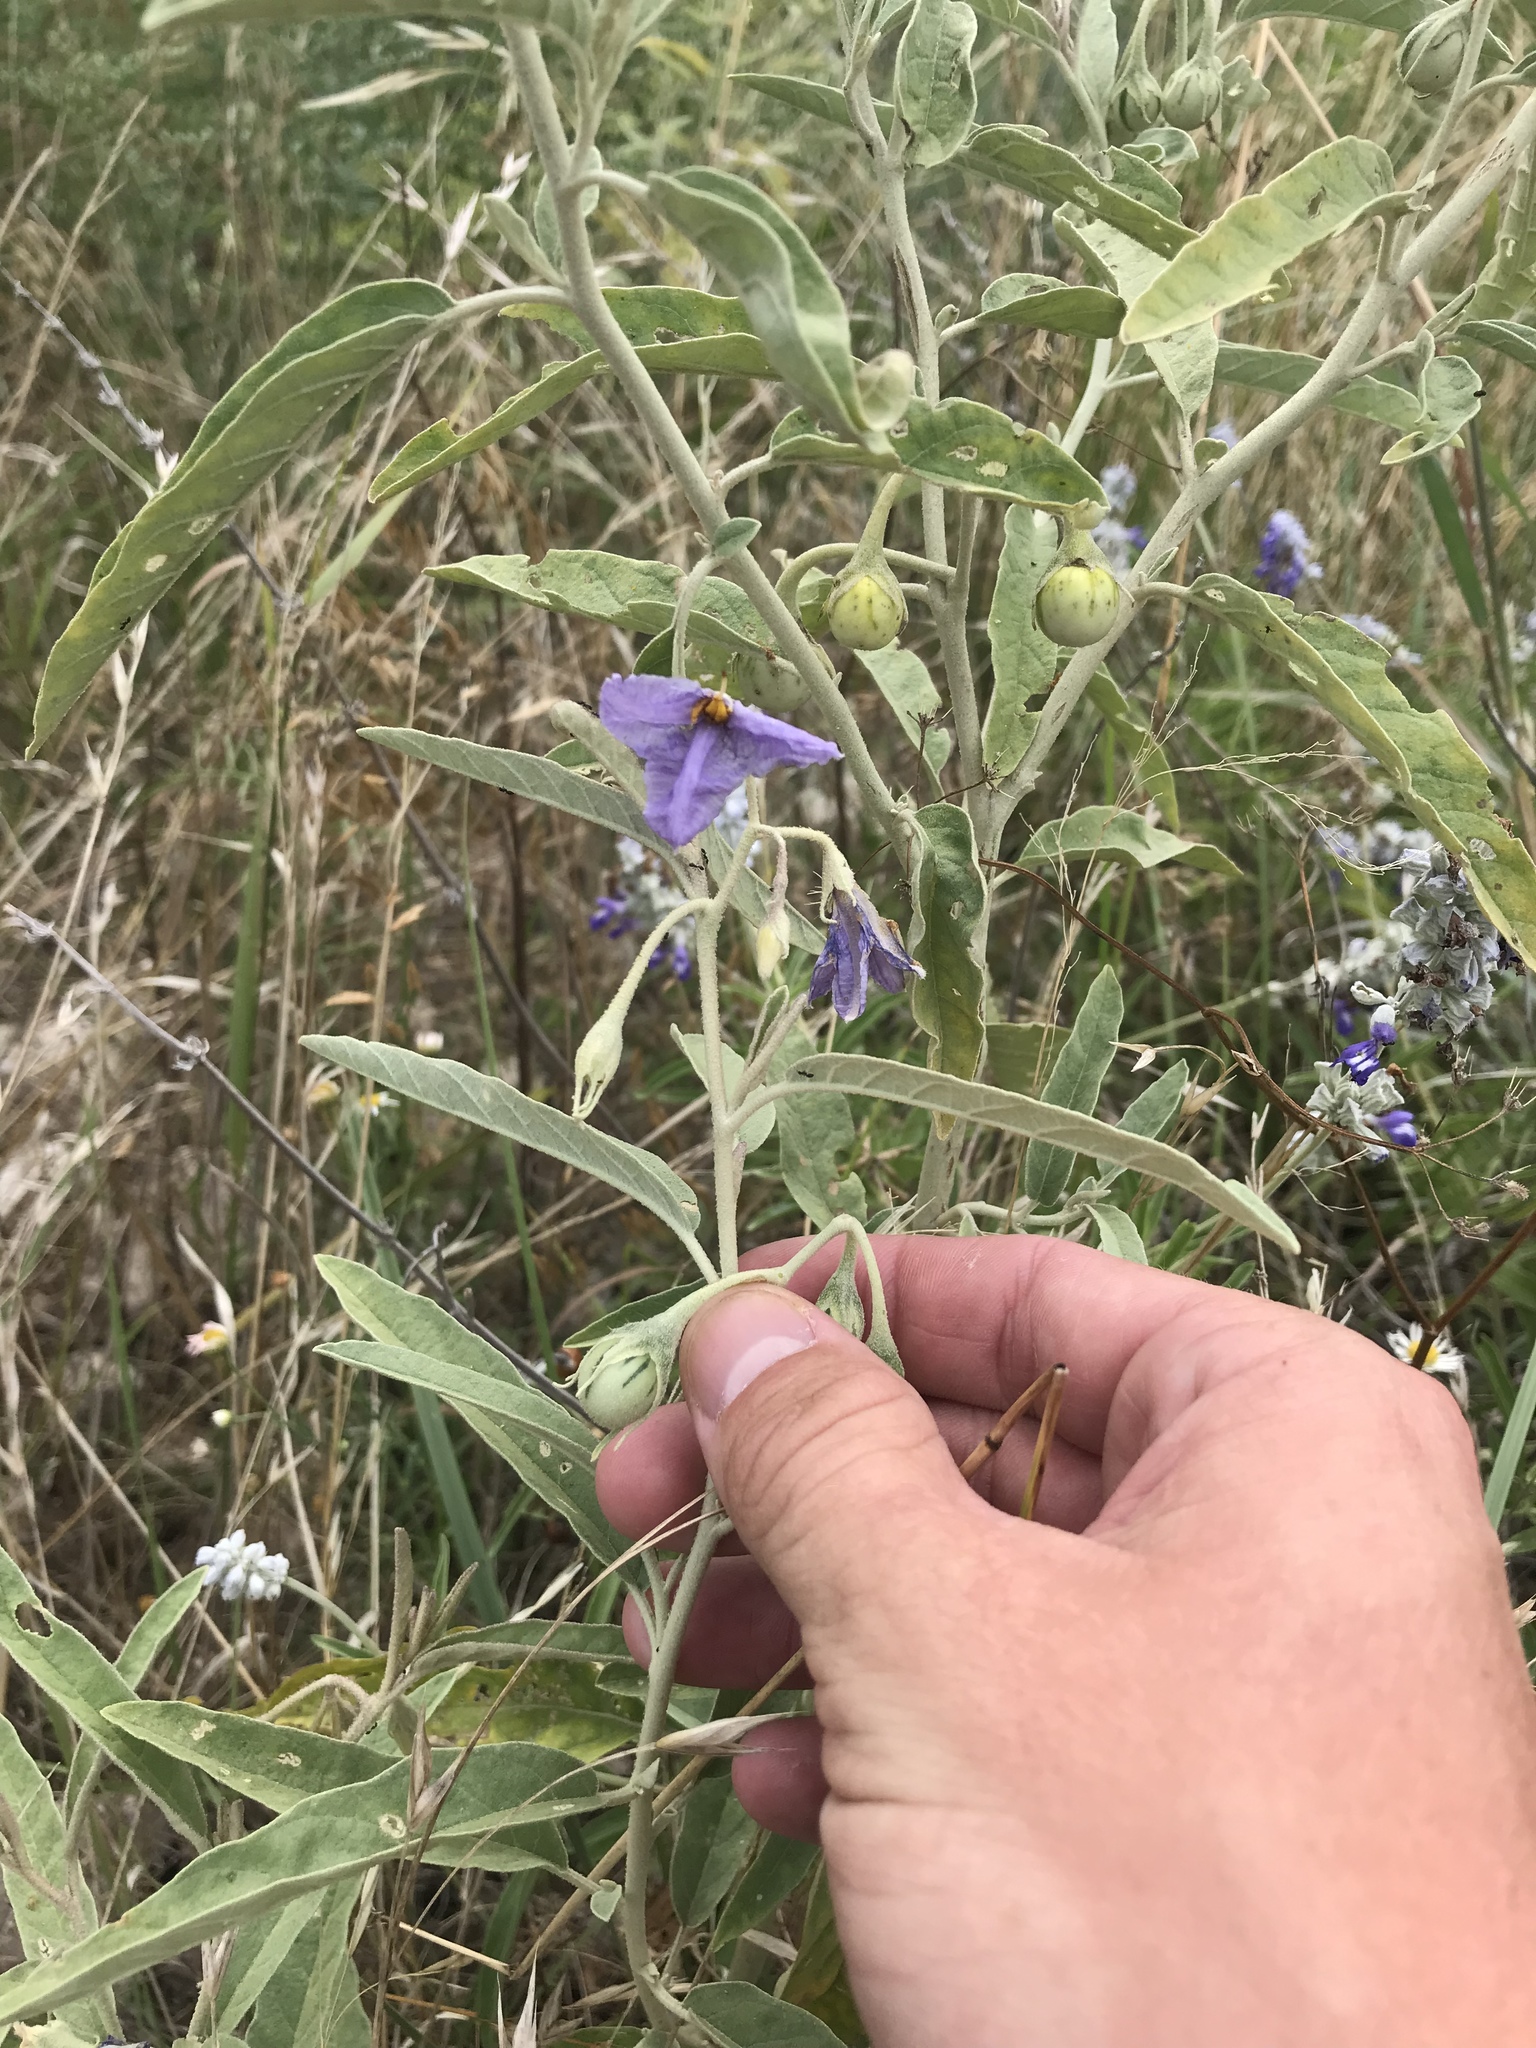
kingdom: Plantae
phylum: Tracheophyta
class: Magnoliopsida
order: Solanales
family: Solanaceae
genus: Solanum
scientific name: Solanum elaeagnifolium
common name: Silverleaf nightshade
